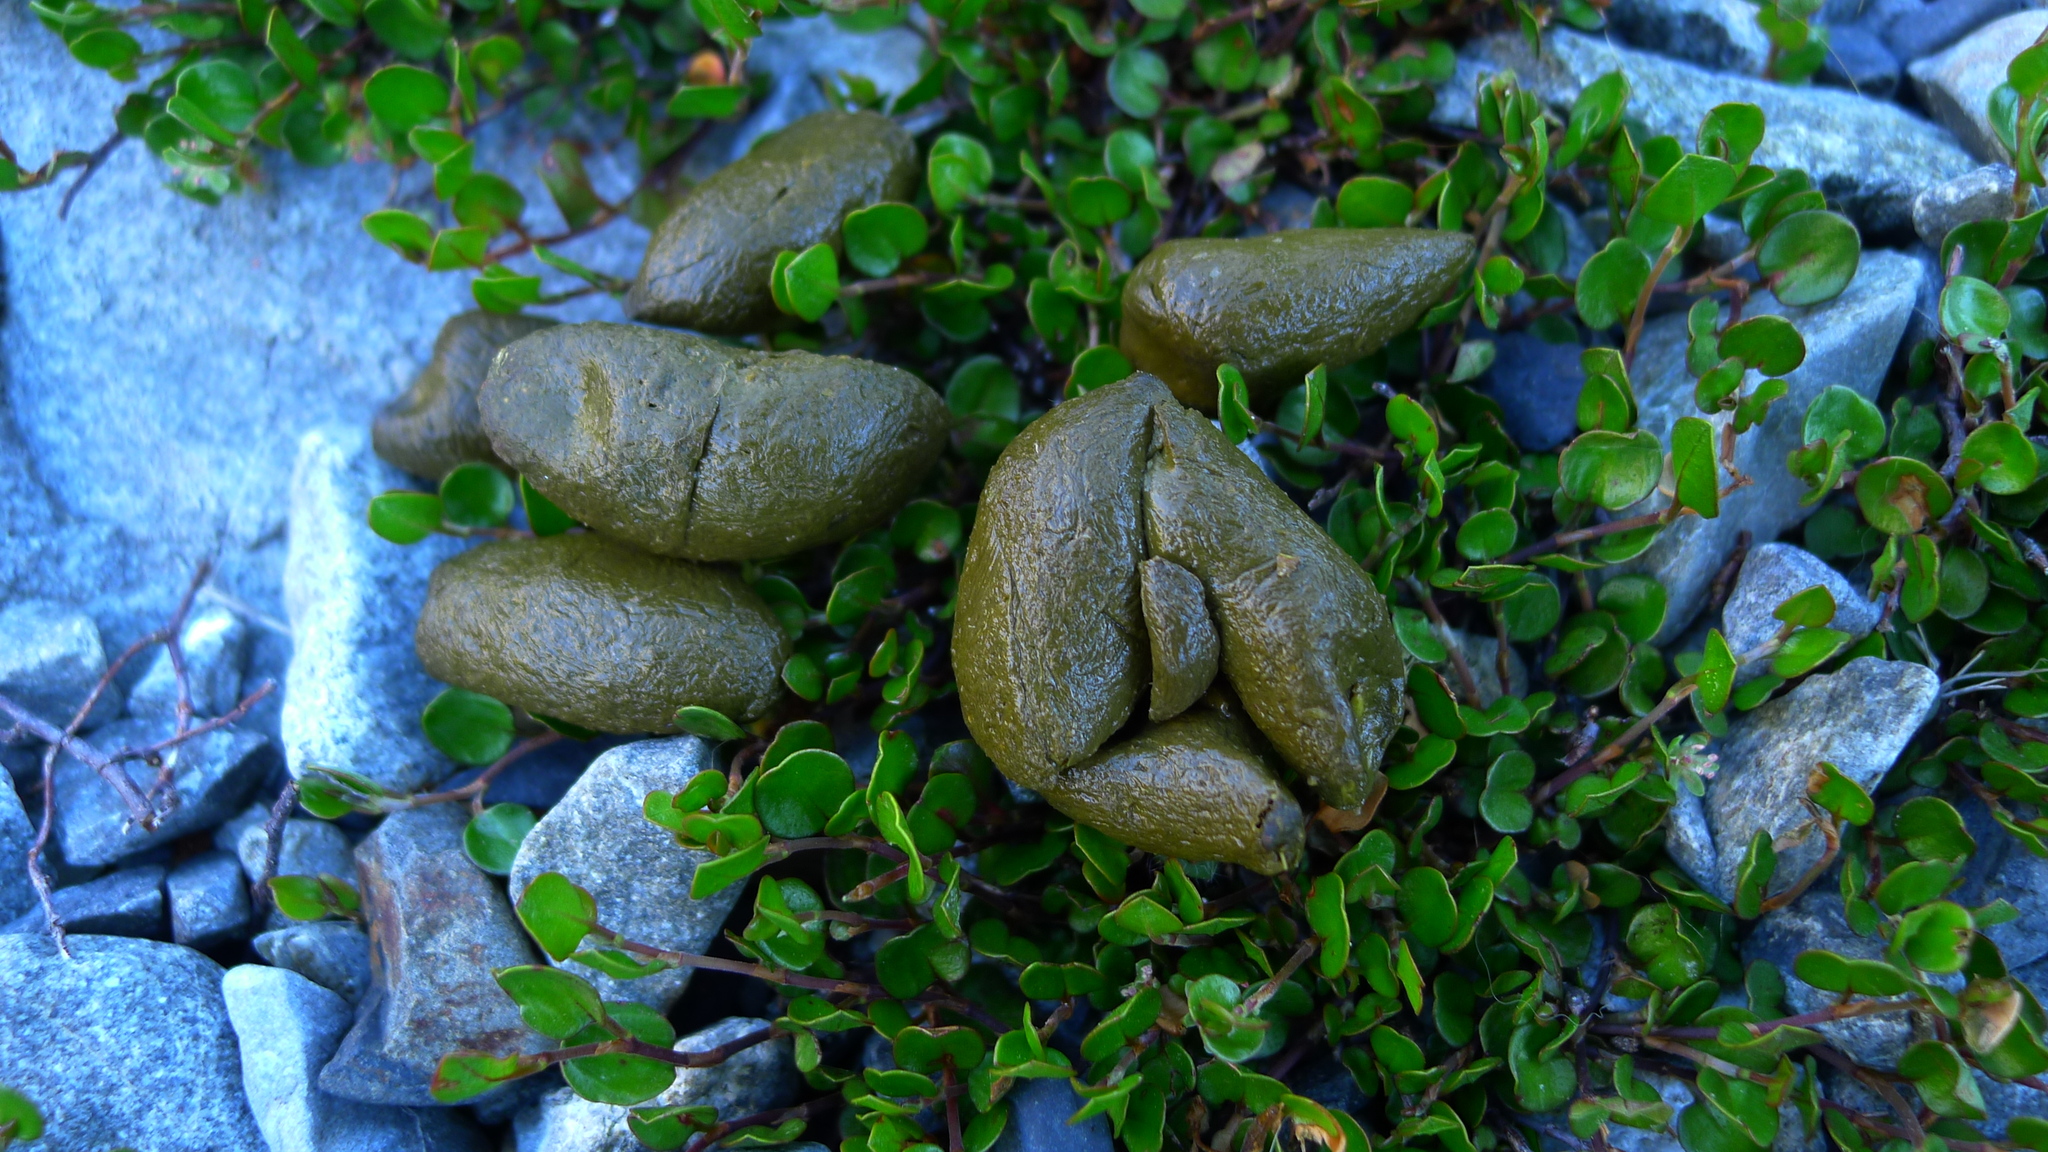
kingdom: Animalia
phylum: Chordata
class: Mammalia
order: Diprotodontia
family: Phalangeridae
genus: Trichosurus
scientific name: Trichosurus vulpecula
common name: Common brushtail
